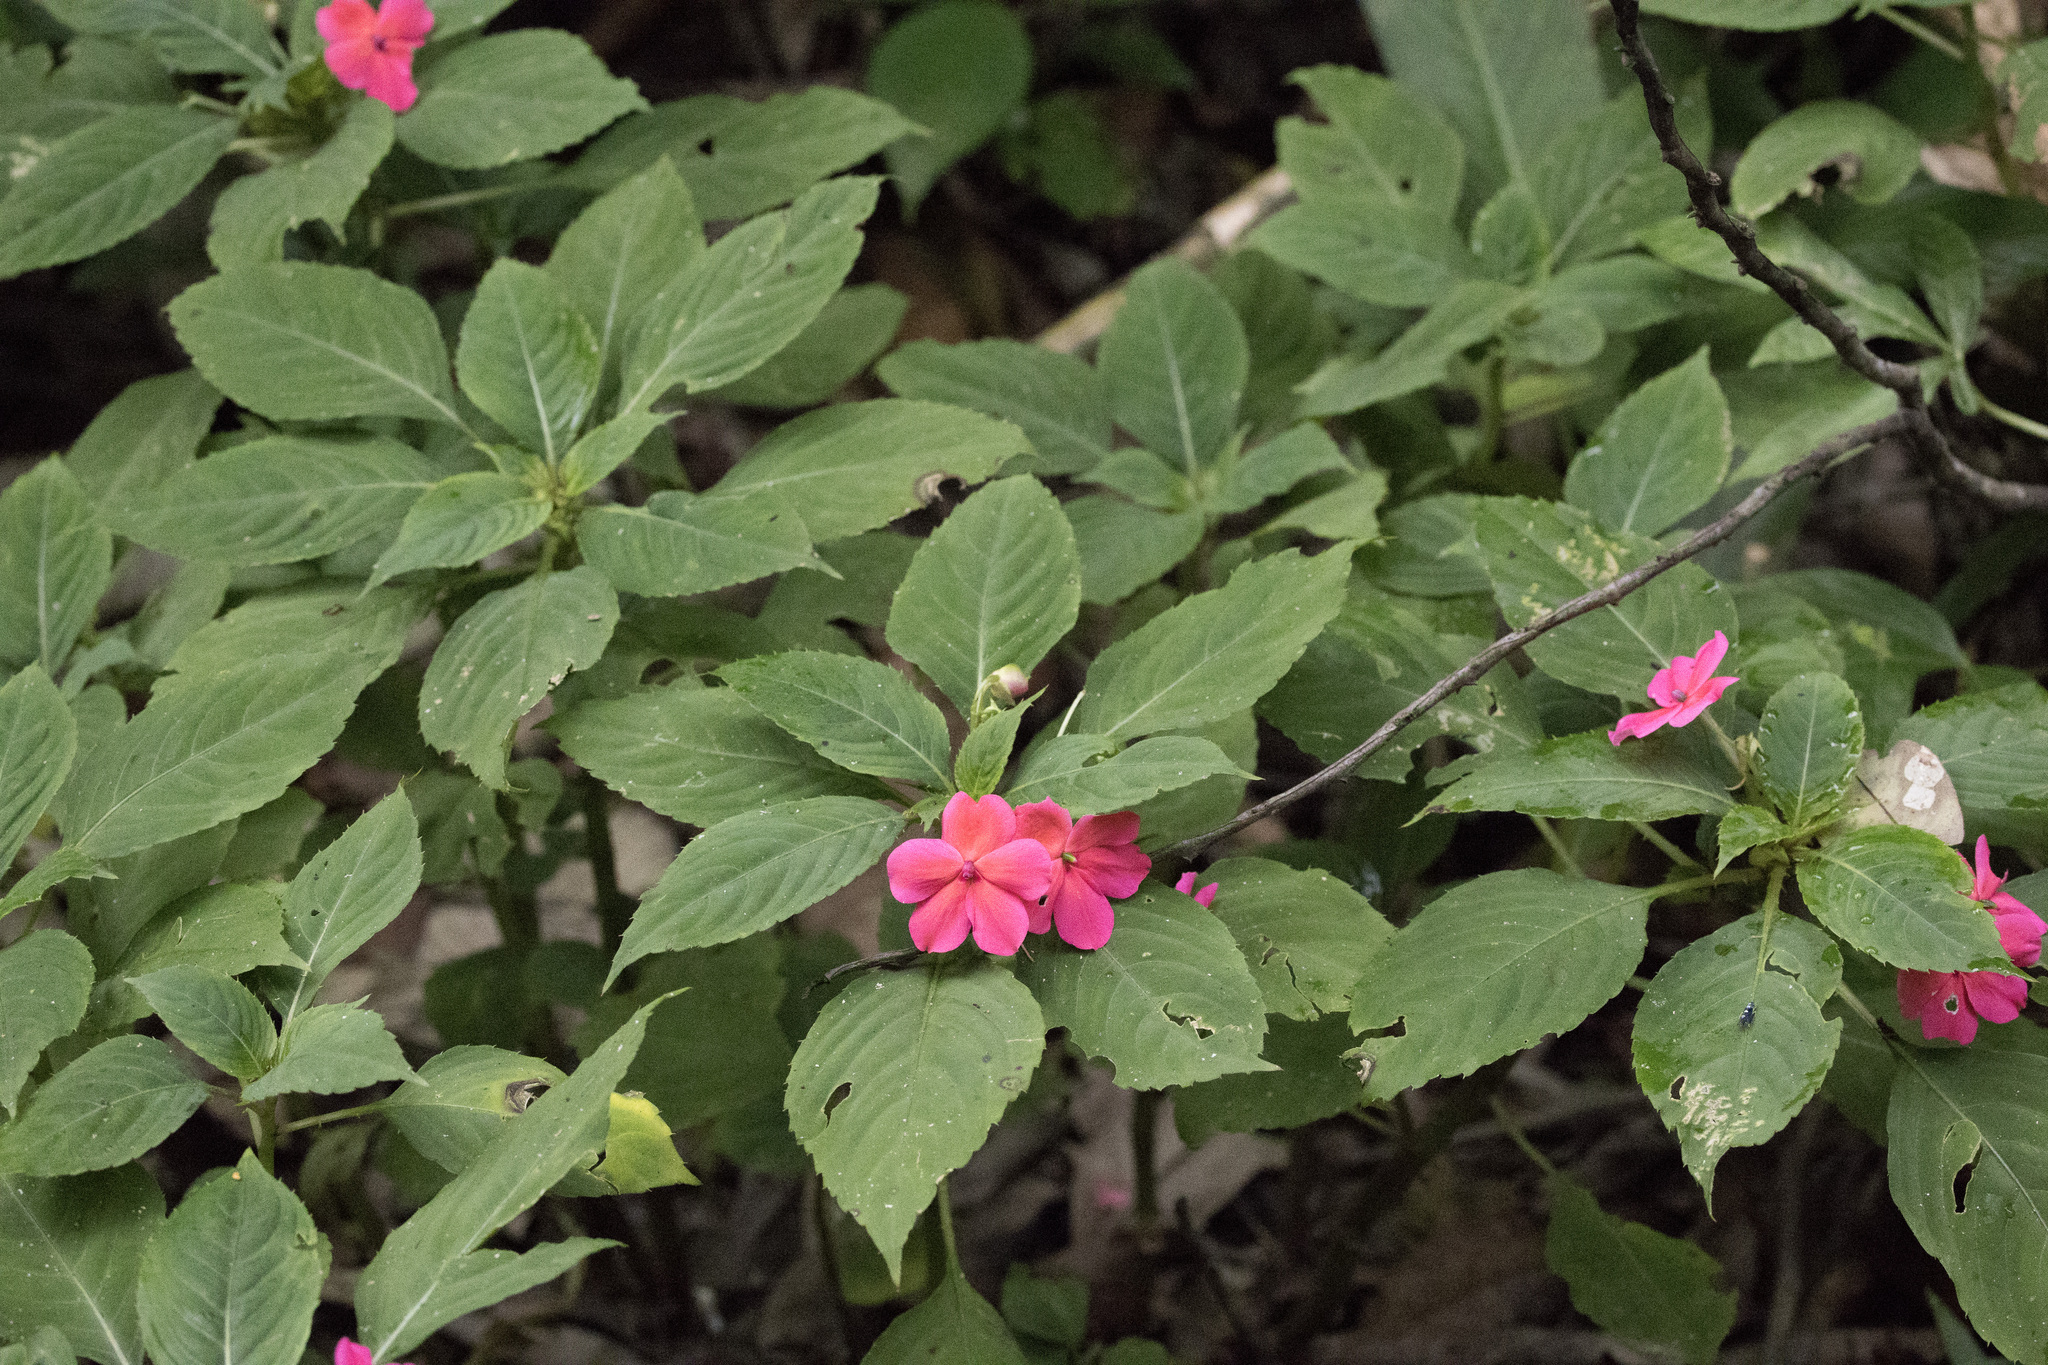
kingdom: Plantae
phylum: Tracheophyta
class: Magnoliopsida
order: Ericales
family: Balsaminaceae
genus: Impatiens
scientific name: Impatiens walleriana
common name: Buzzy lizzy
